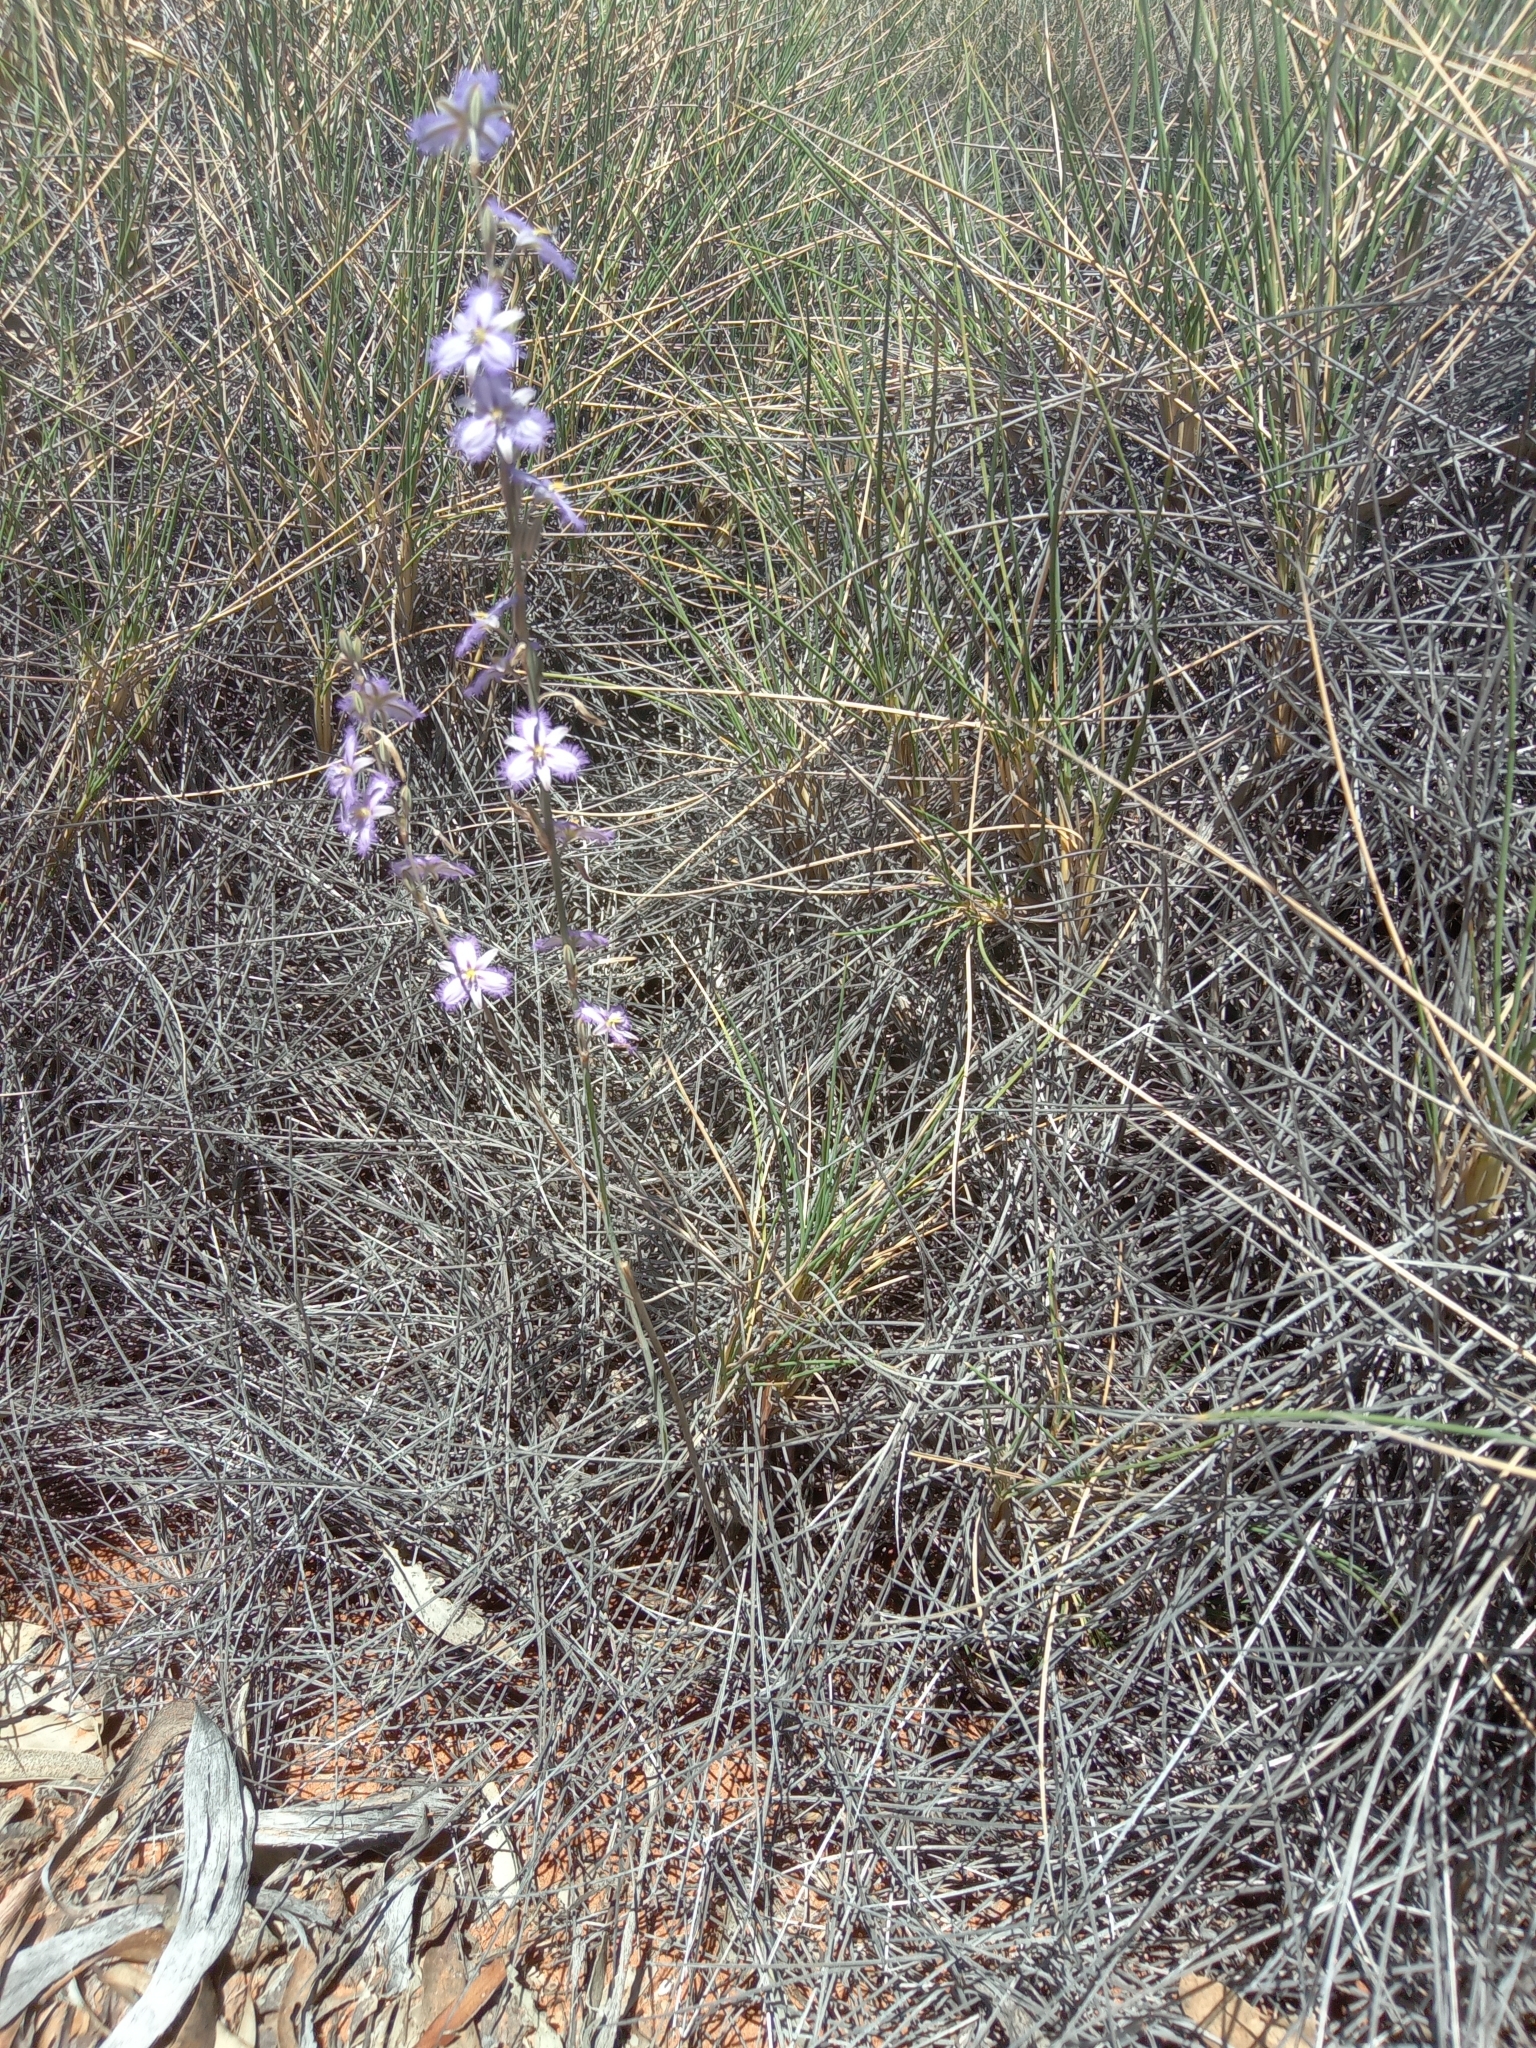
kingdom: Plantae
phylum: Tracheophyta
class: Liliopsida
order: Asparagales
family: Asparagaceae
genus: Thysanotus
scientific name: Thysanotus baueri
